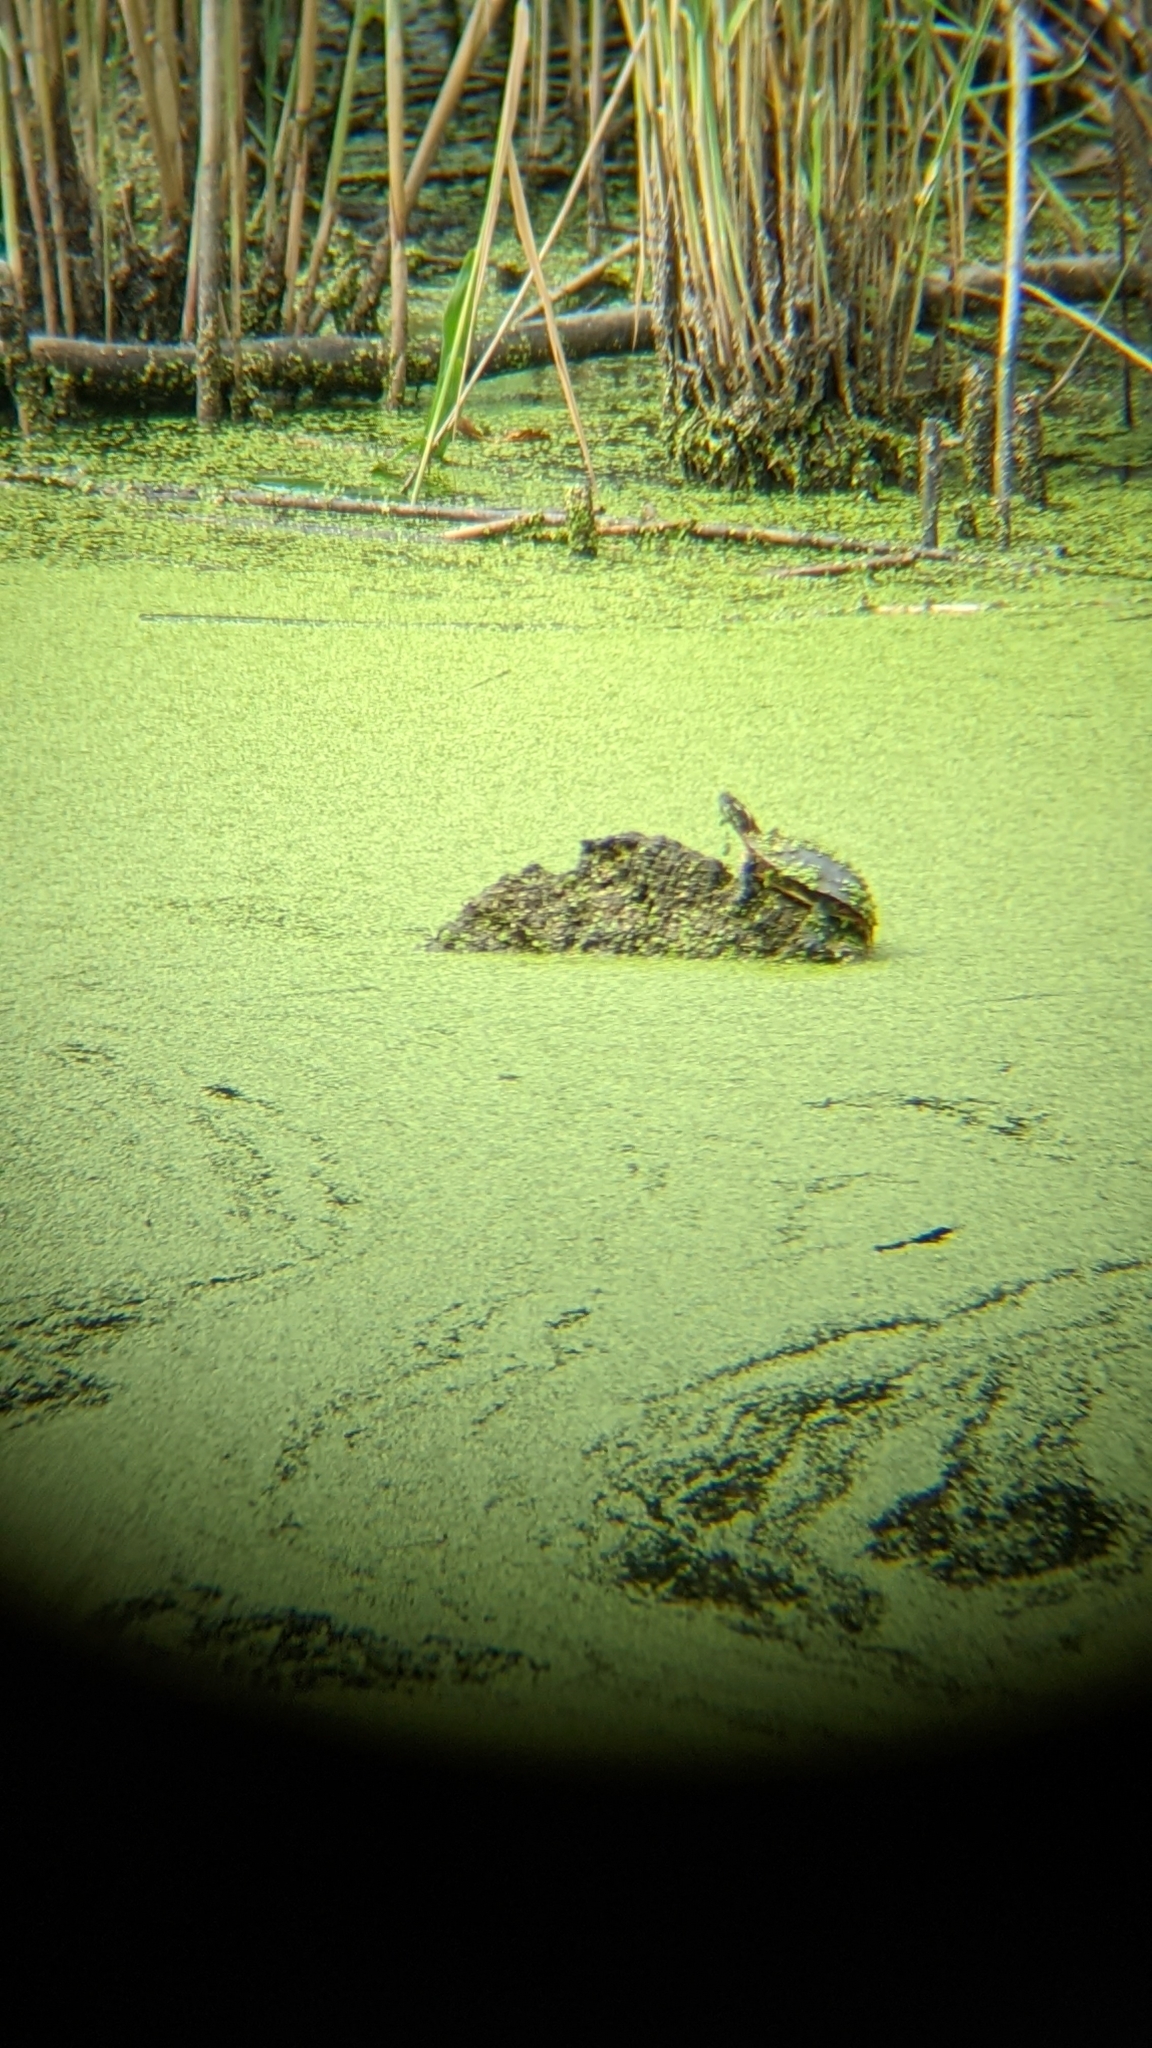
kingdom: Animalia
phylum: Chordata
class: Testudines
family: Emydidae
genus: Chrysemys
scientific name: Chrysemys picta
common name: Painted turtle
